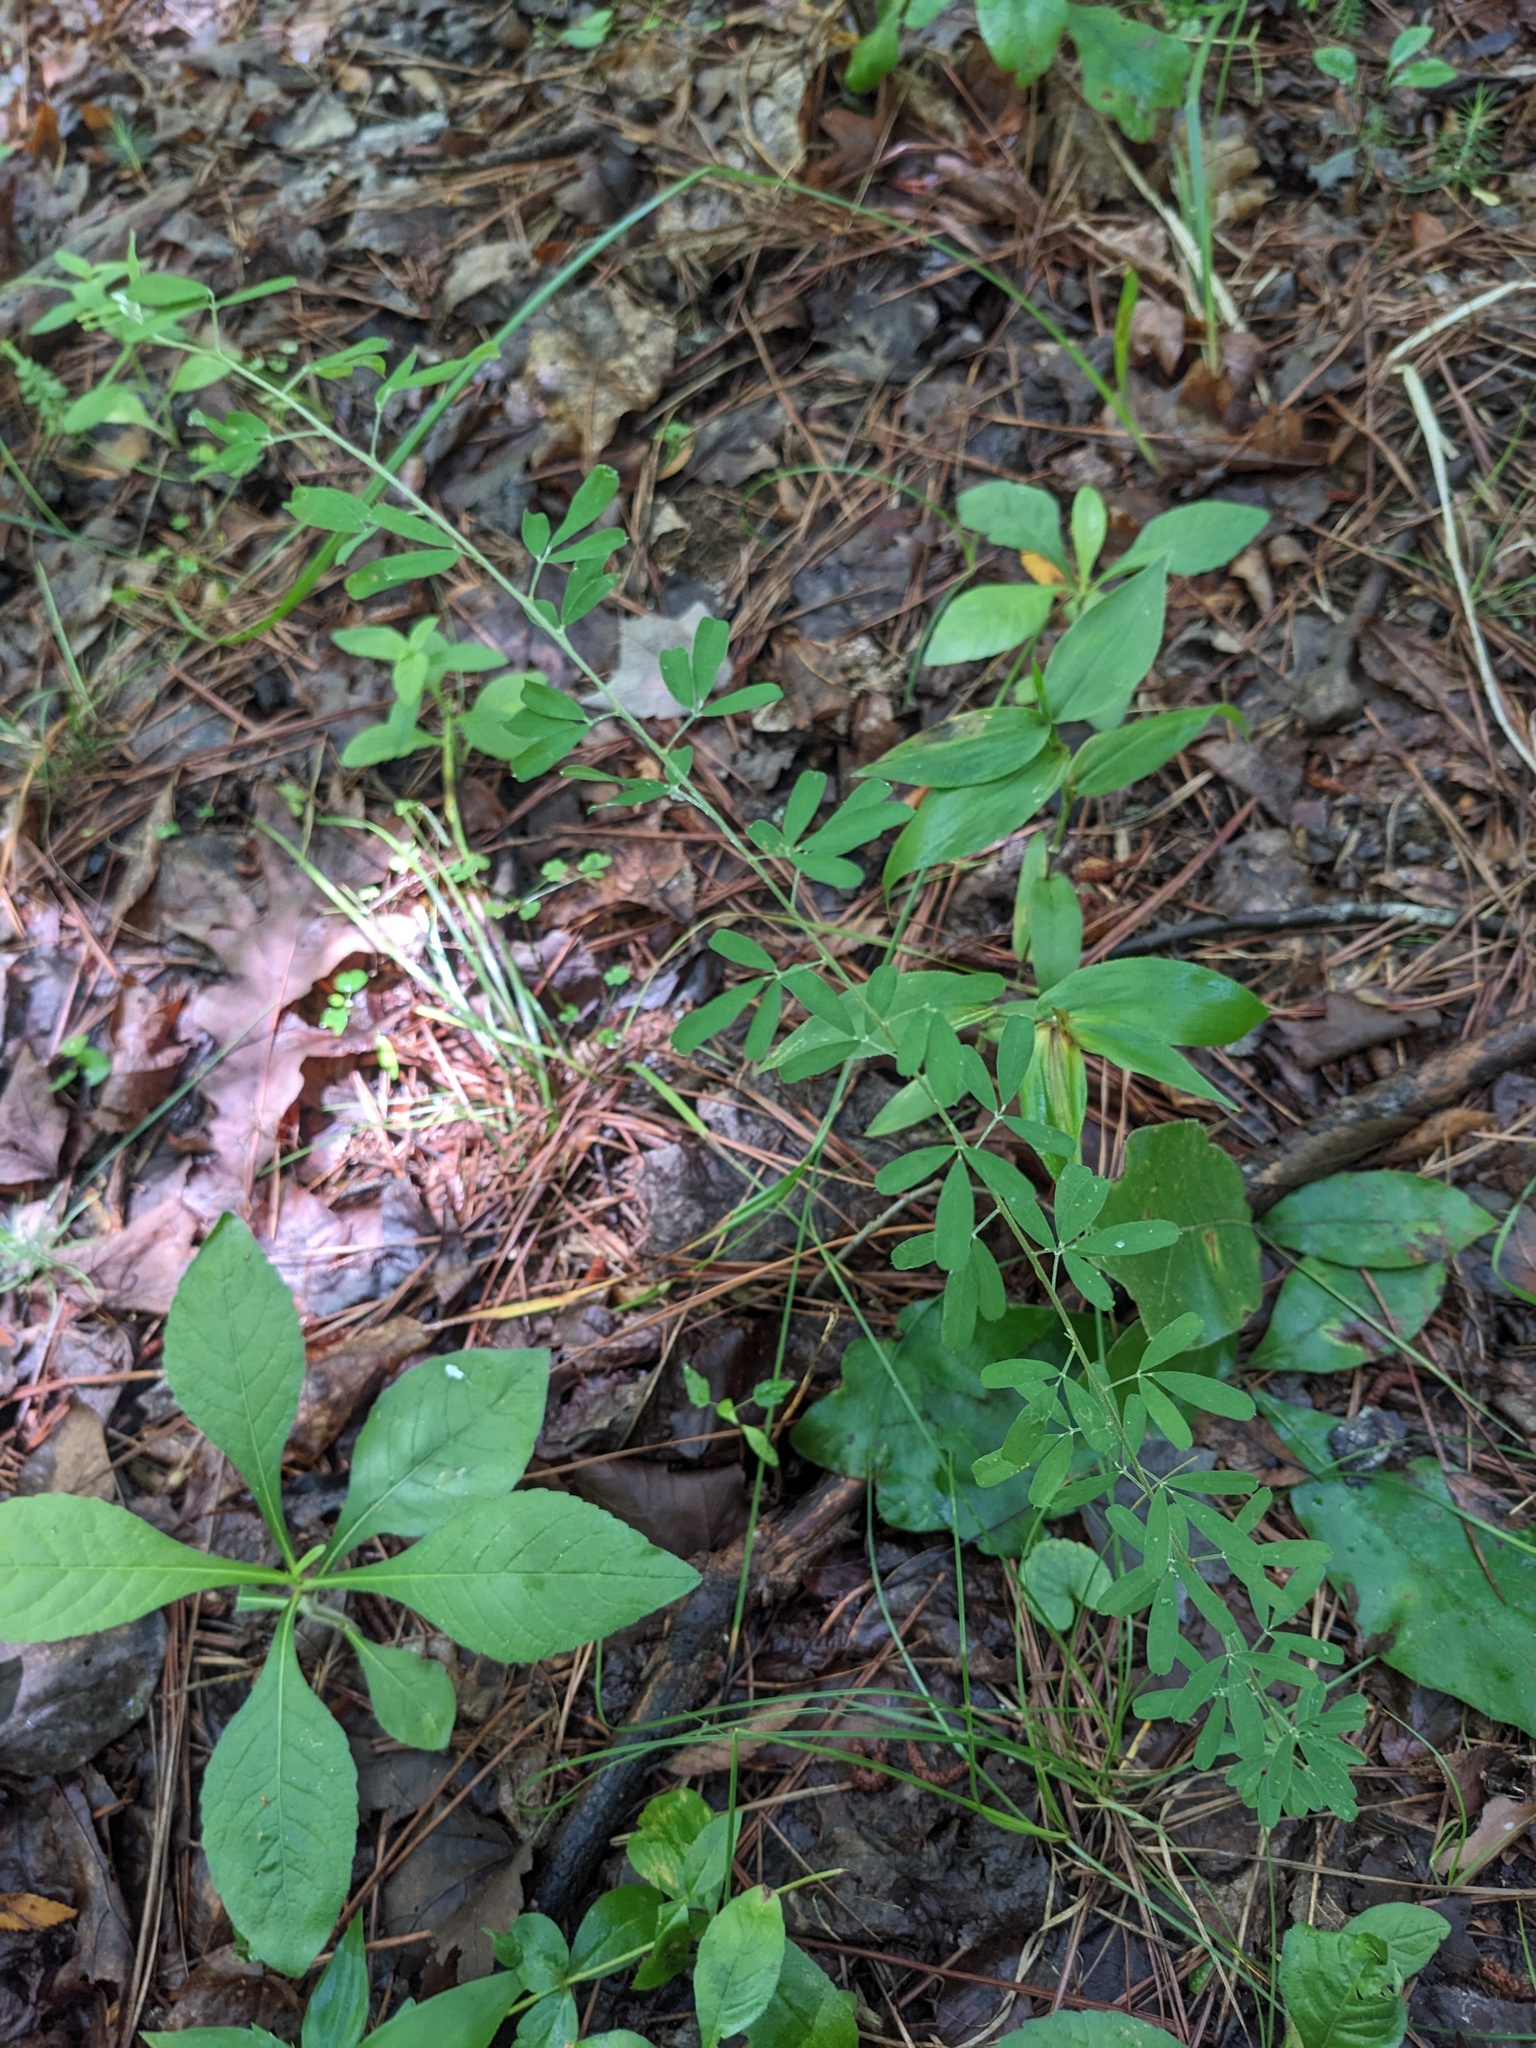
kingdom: Plantae
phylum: Tracheophyta
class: Magnoliopsida
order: Fabales
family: Fabaceae
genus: Lespedeza
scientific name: Lespedeza cuneata
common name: Chinese bush-clover
